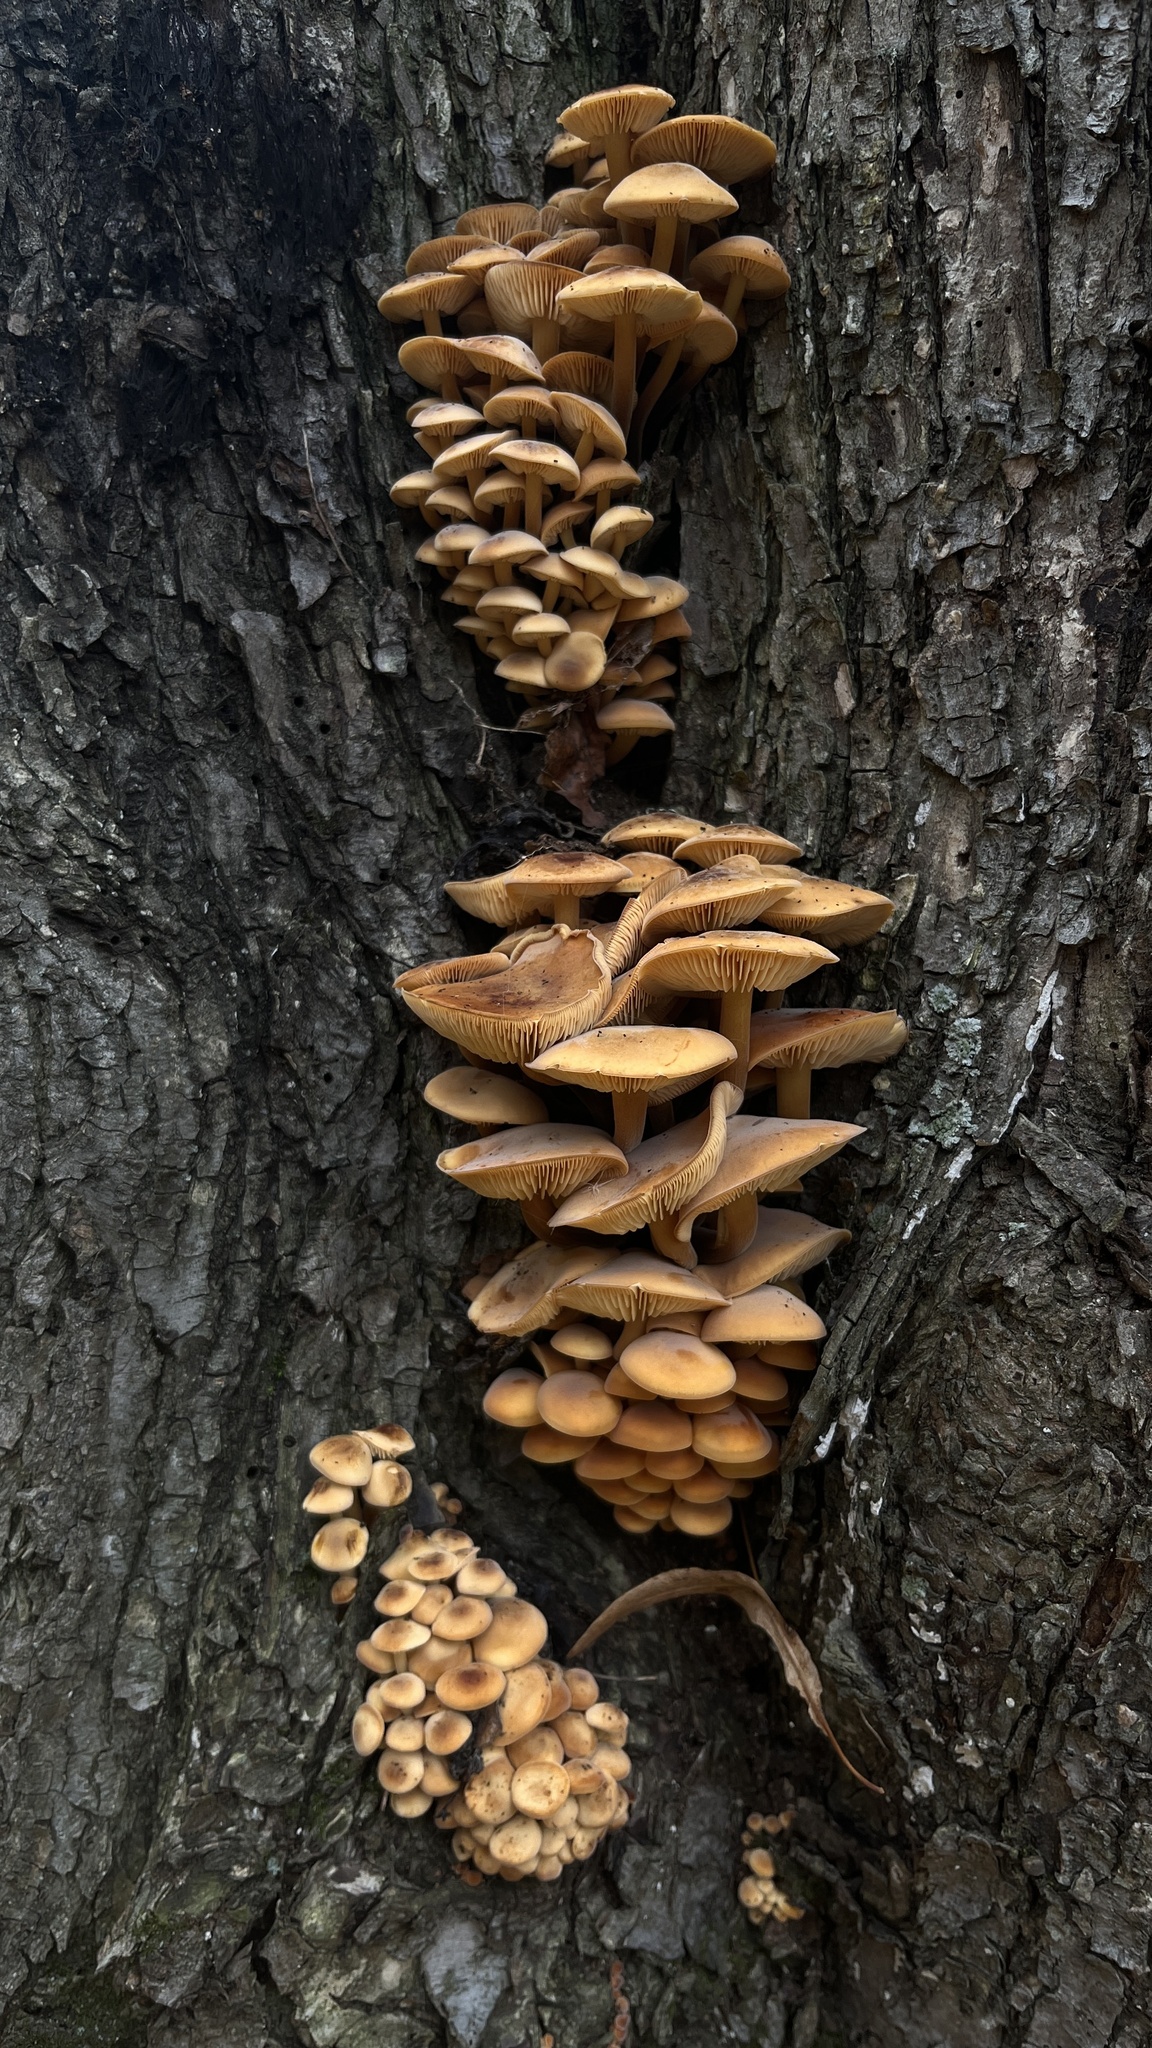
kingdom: Fungi
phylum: Basidiomycota
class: Agaricomycetes
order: Agaricales
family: Physalacriaceae
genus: Flammulina
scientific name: Flammulina
